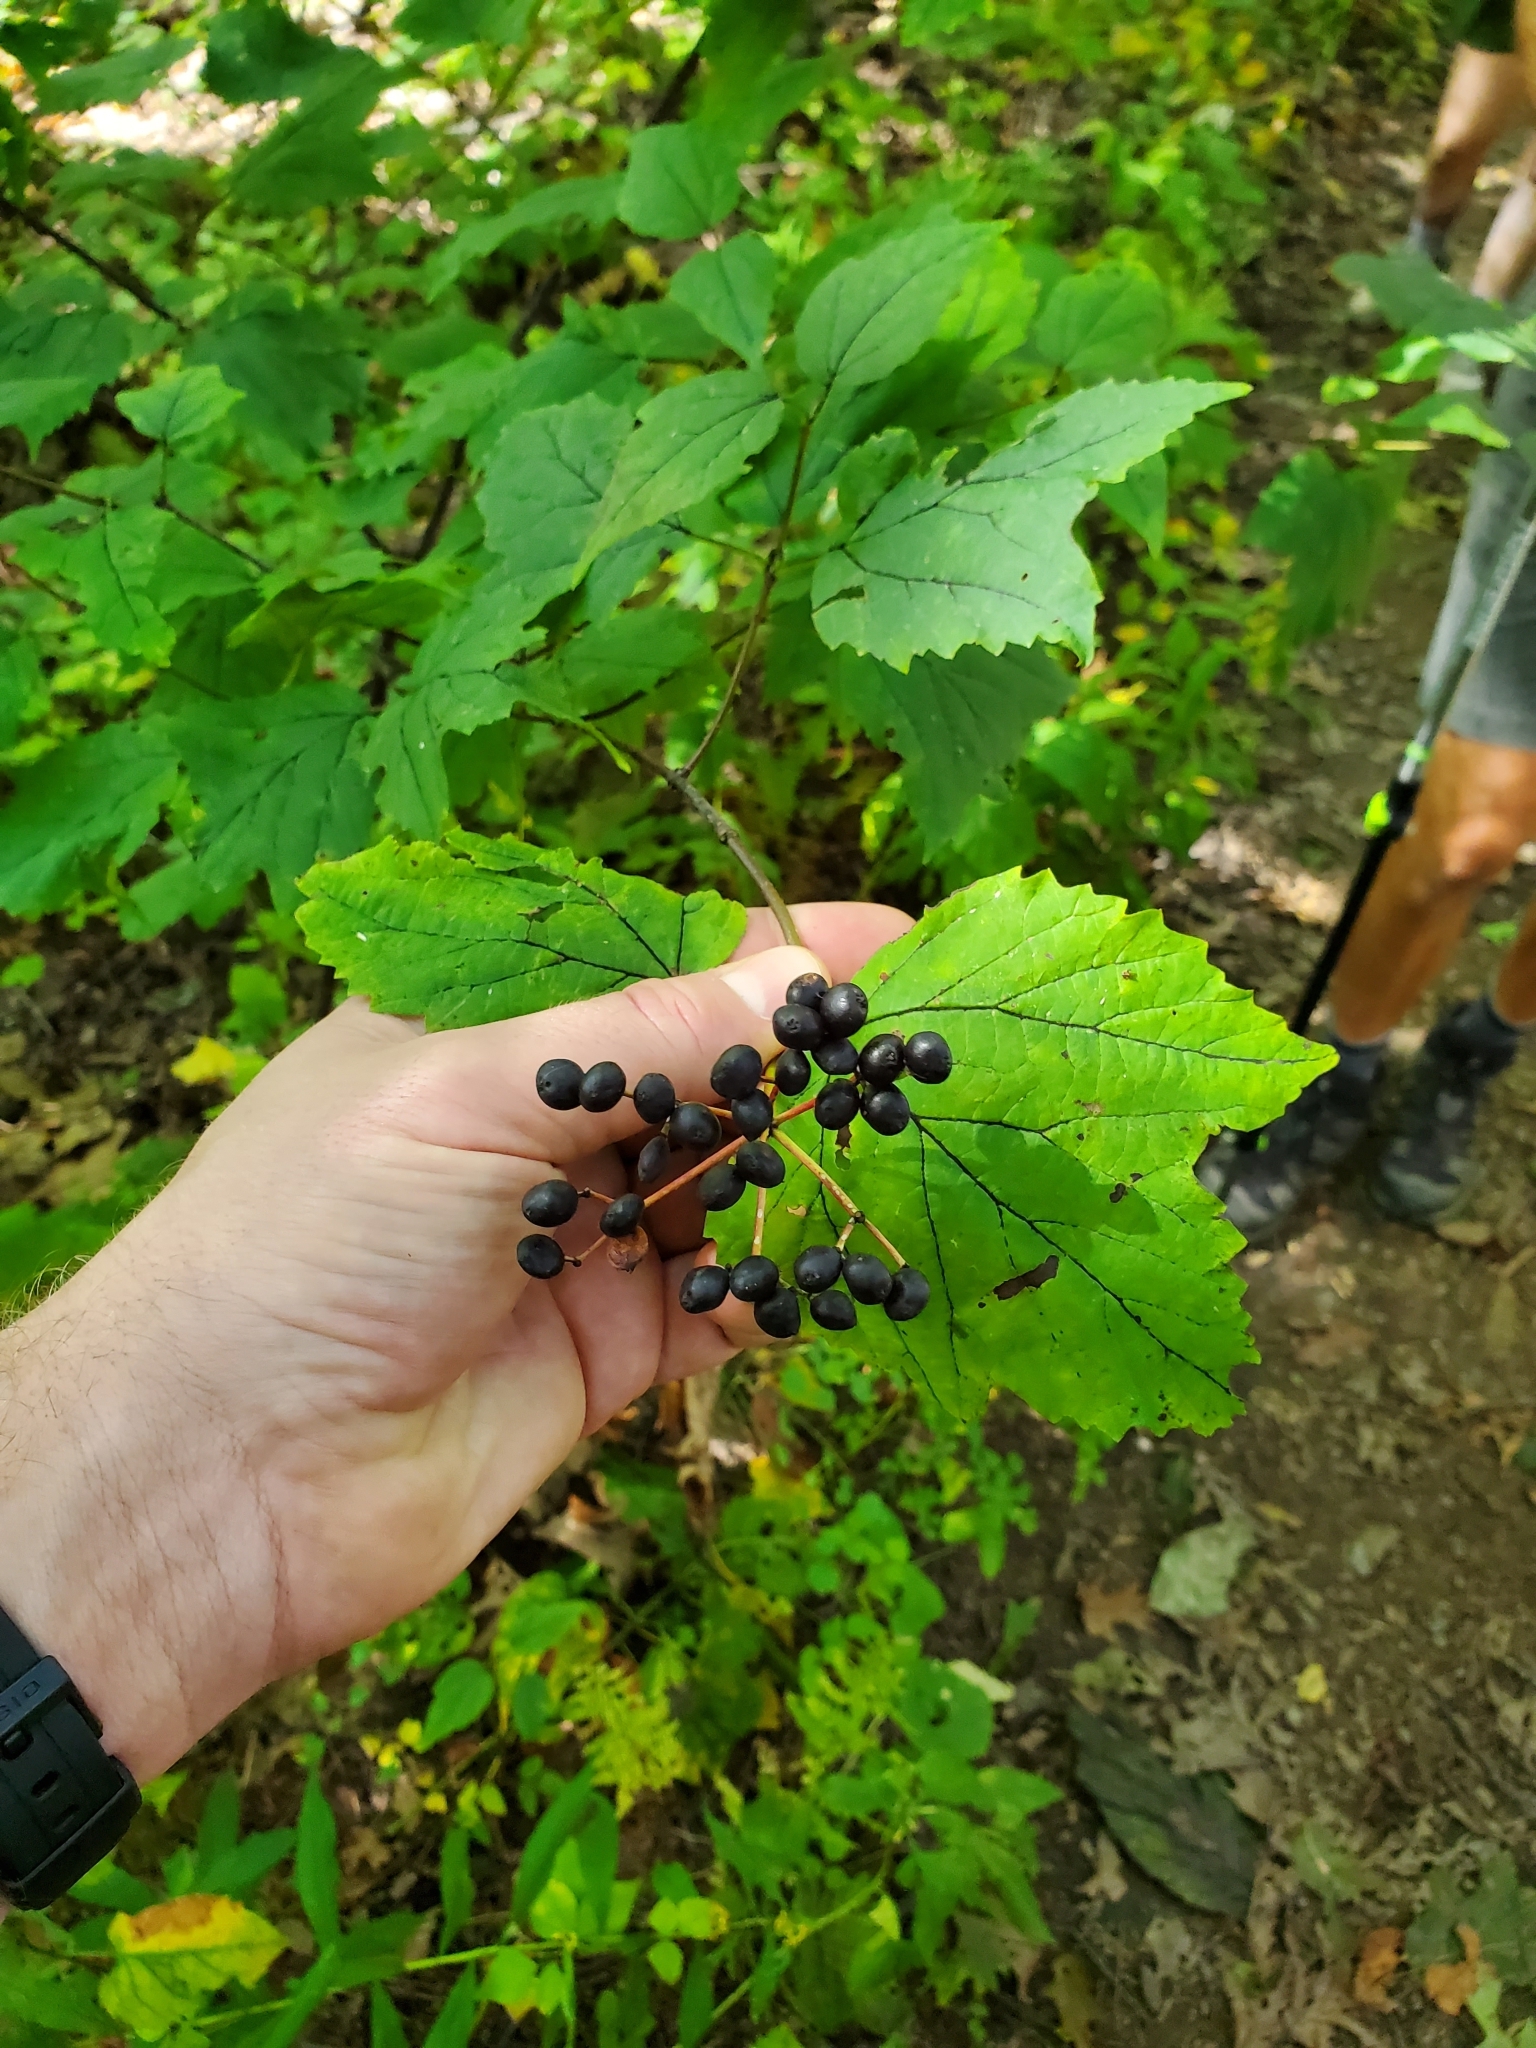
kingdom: Plantae
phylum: Tracheophyta
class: Magnoliopsida
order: Dipsacales
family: Viburnaceae
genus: Viburnum
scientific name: Viburnum acerifolium
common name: Dockmackie
